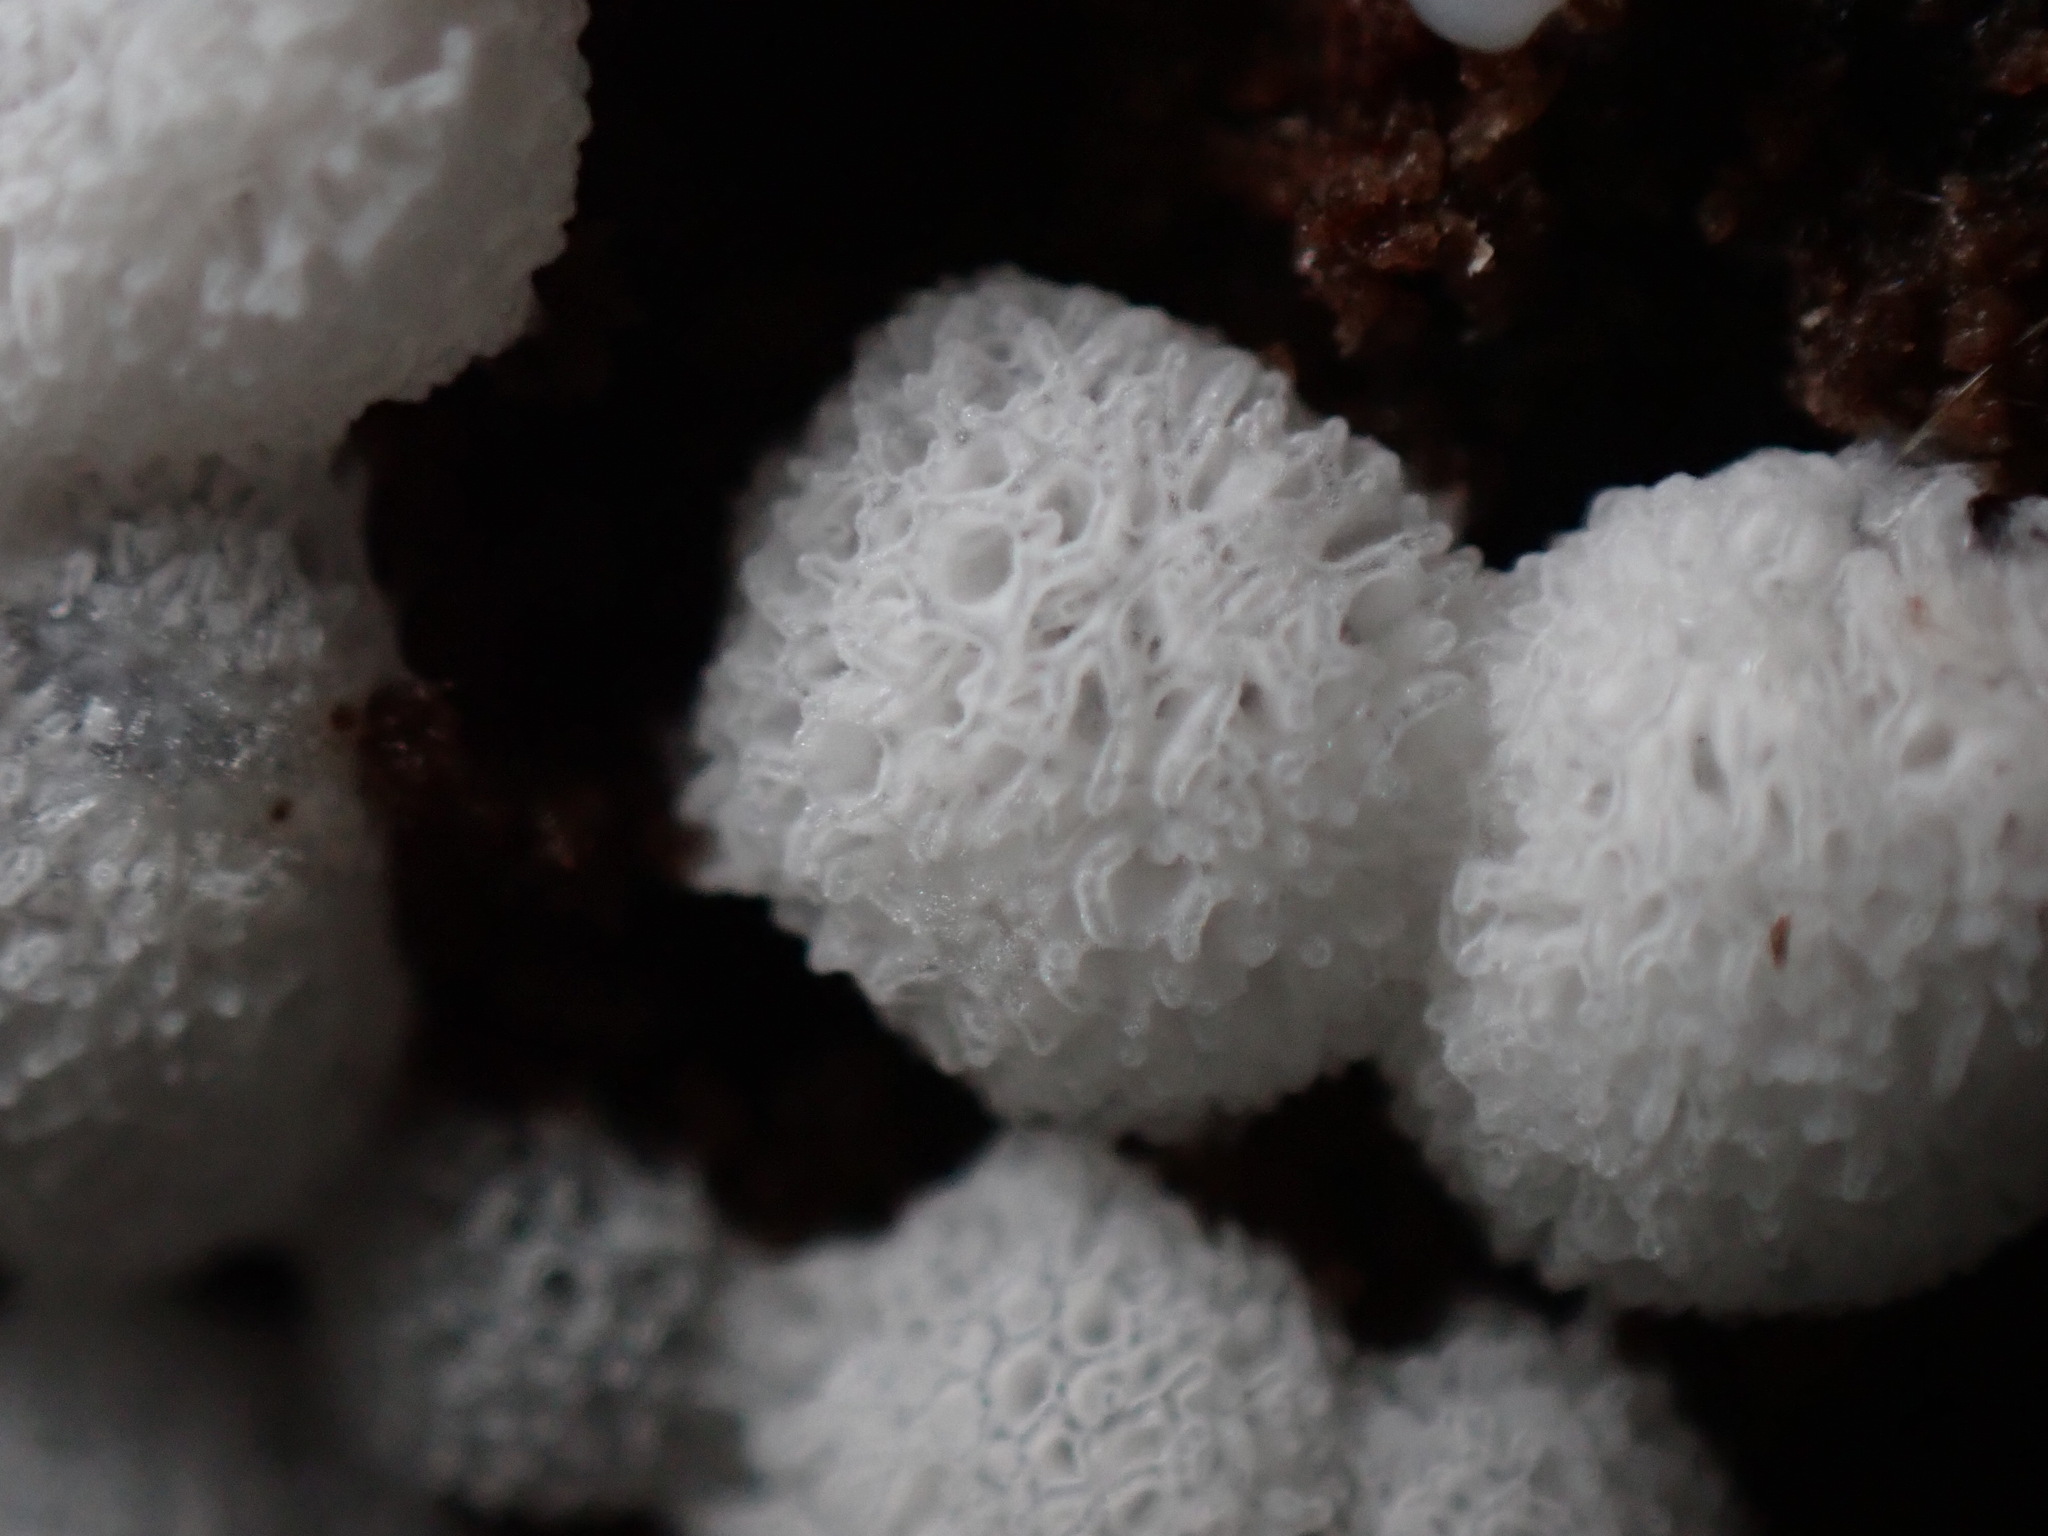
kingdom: Protozoa
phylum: Mycetozoa
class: Protosteliomycetes
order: Ceratiomyxales
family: Ceratiomyxaceae
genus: Ceratiomyxa
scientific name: Ceratiomyxa fruticulosa
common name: Honeycomb coral slime mold
